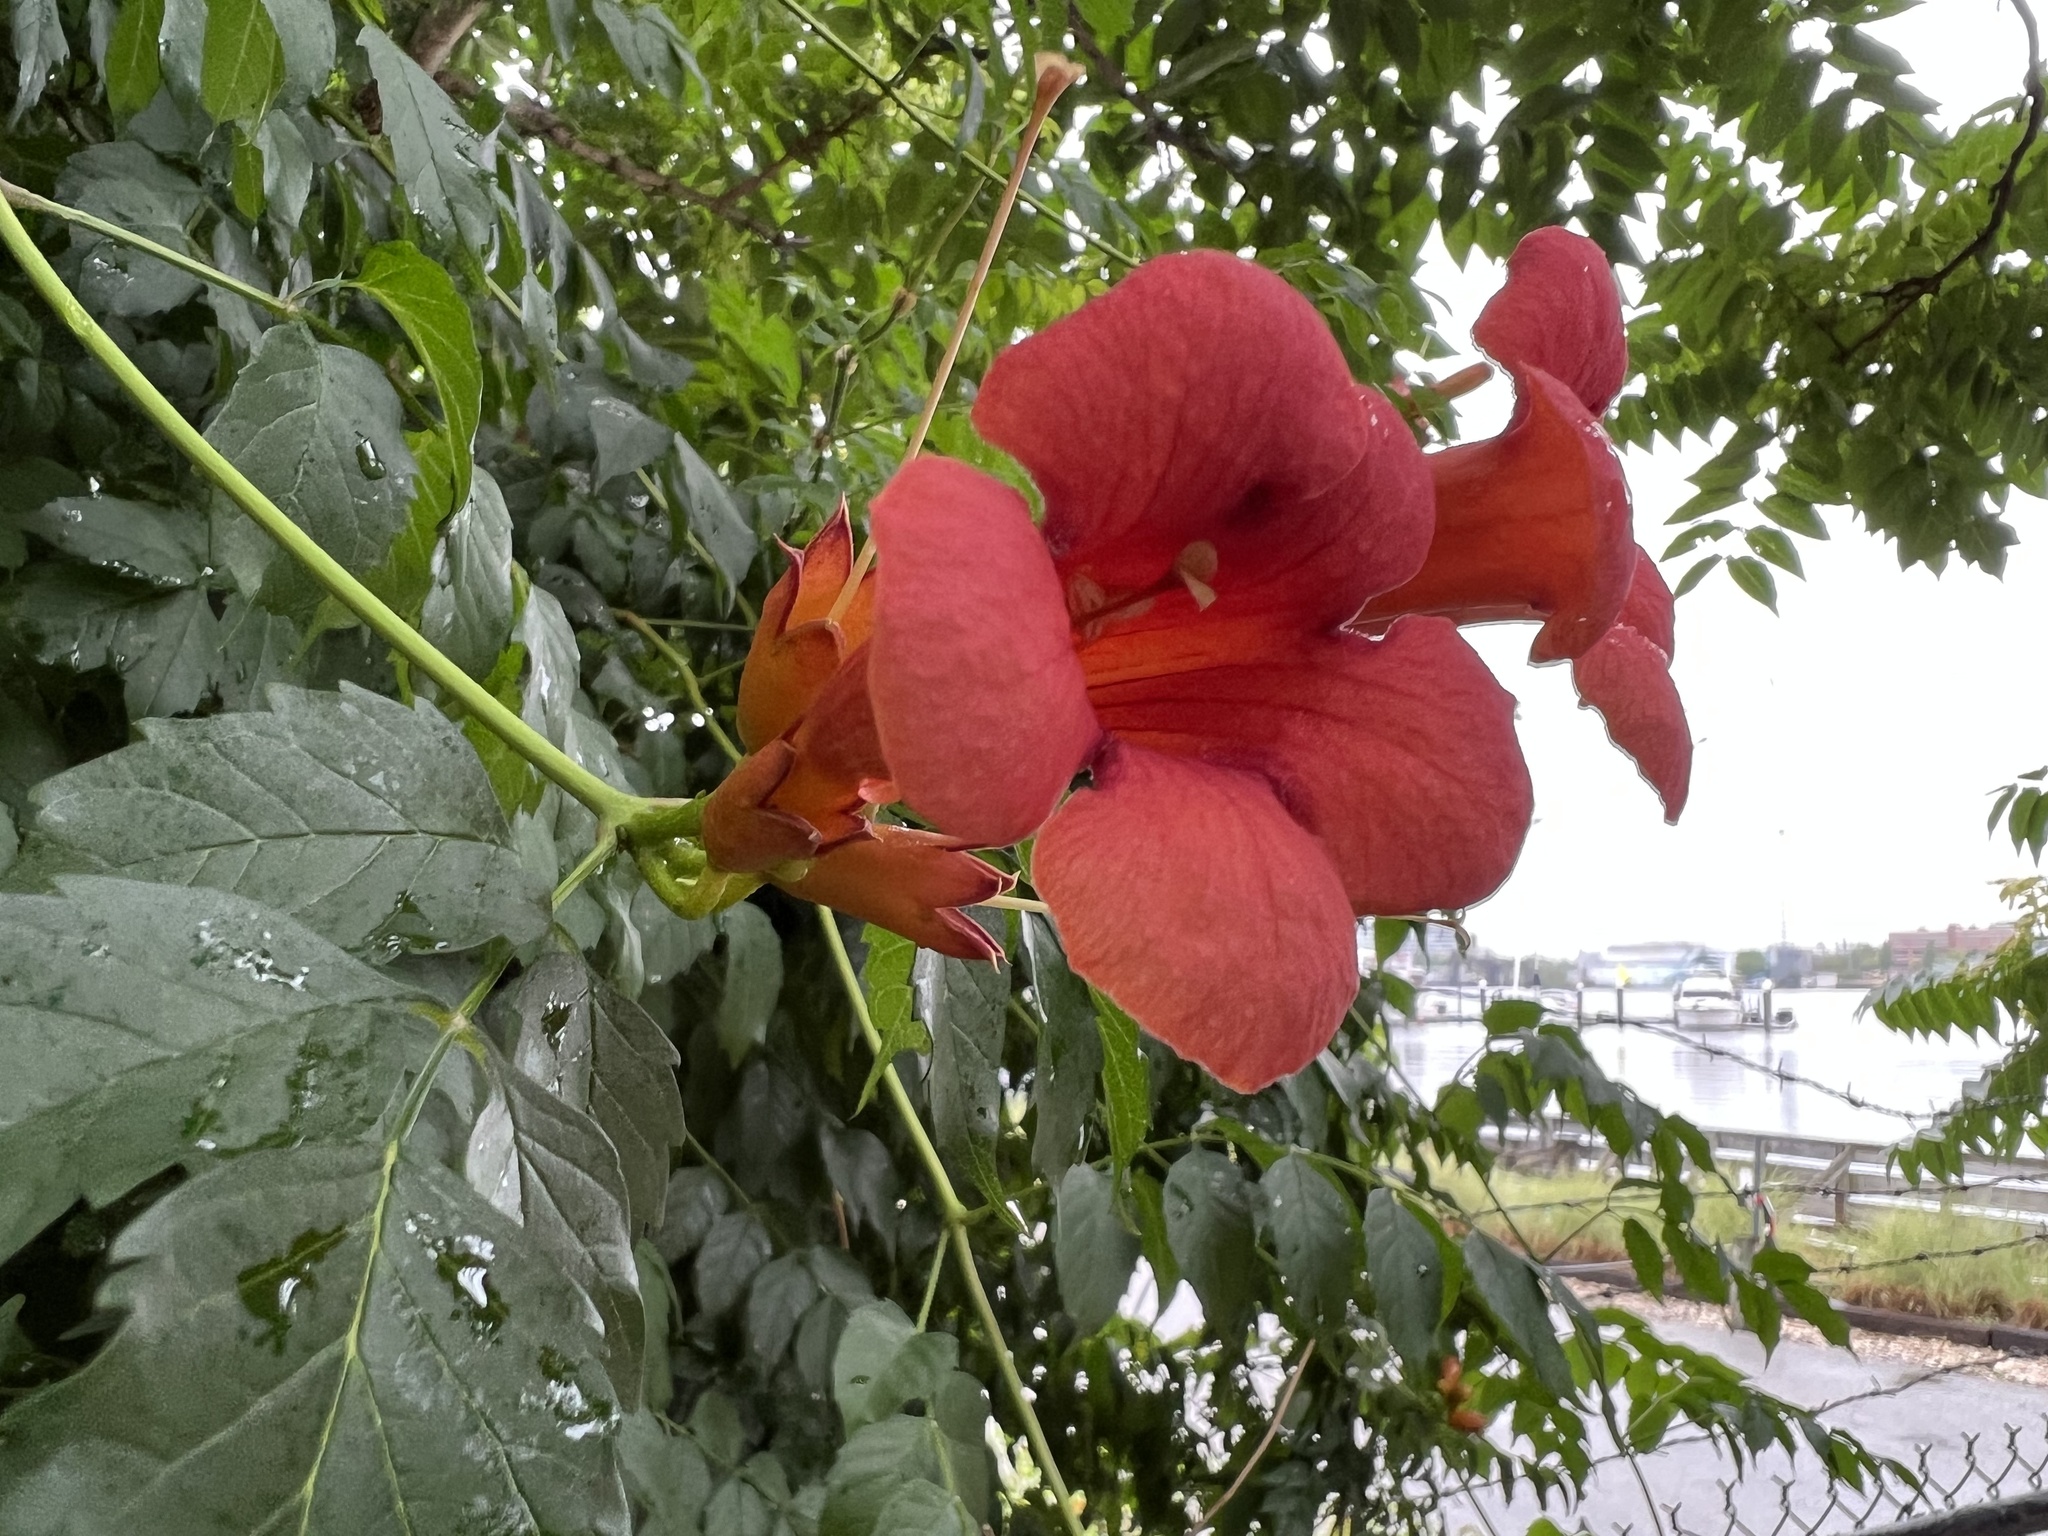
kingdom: Plantae
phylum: Tracheophyta
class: Magnoliopsida
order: Lamiales
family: Bignoniaceae
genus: Campsis
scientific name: Campsis radicans
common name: Trumpet-creeper
